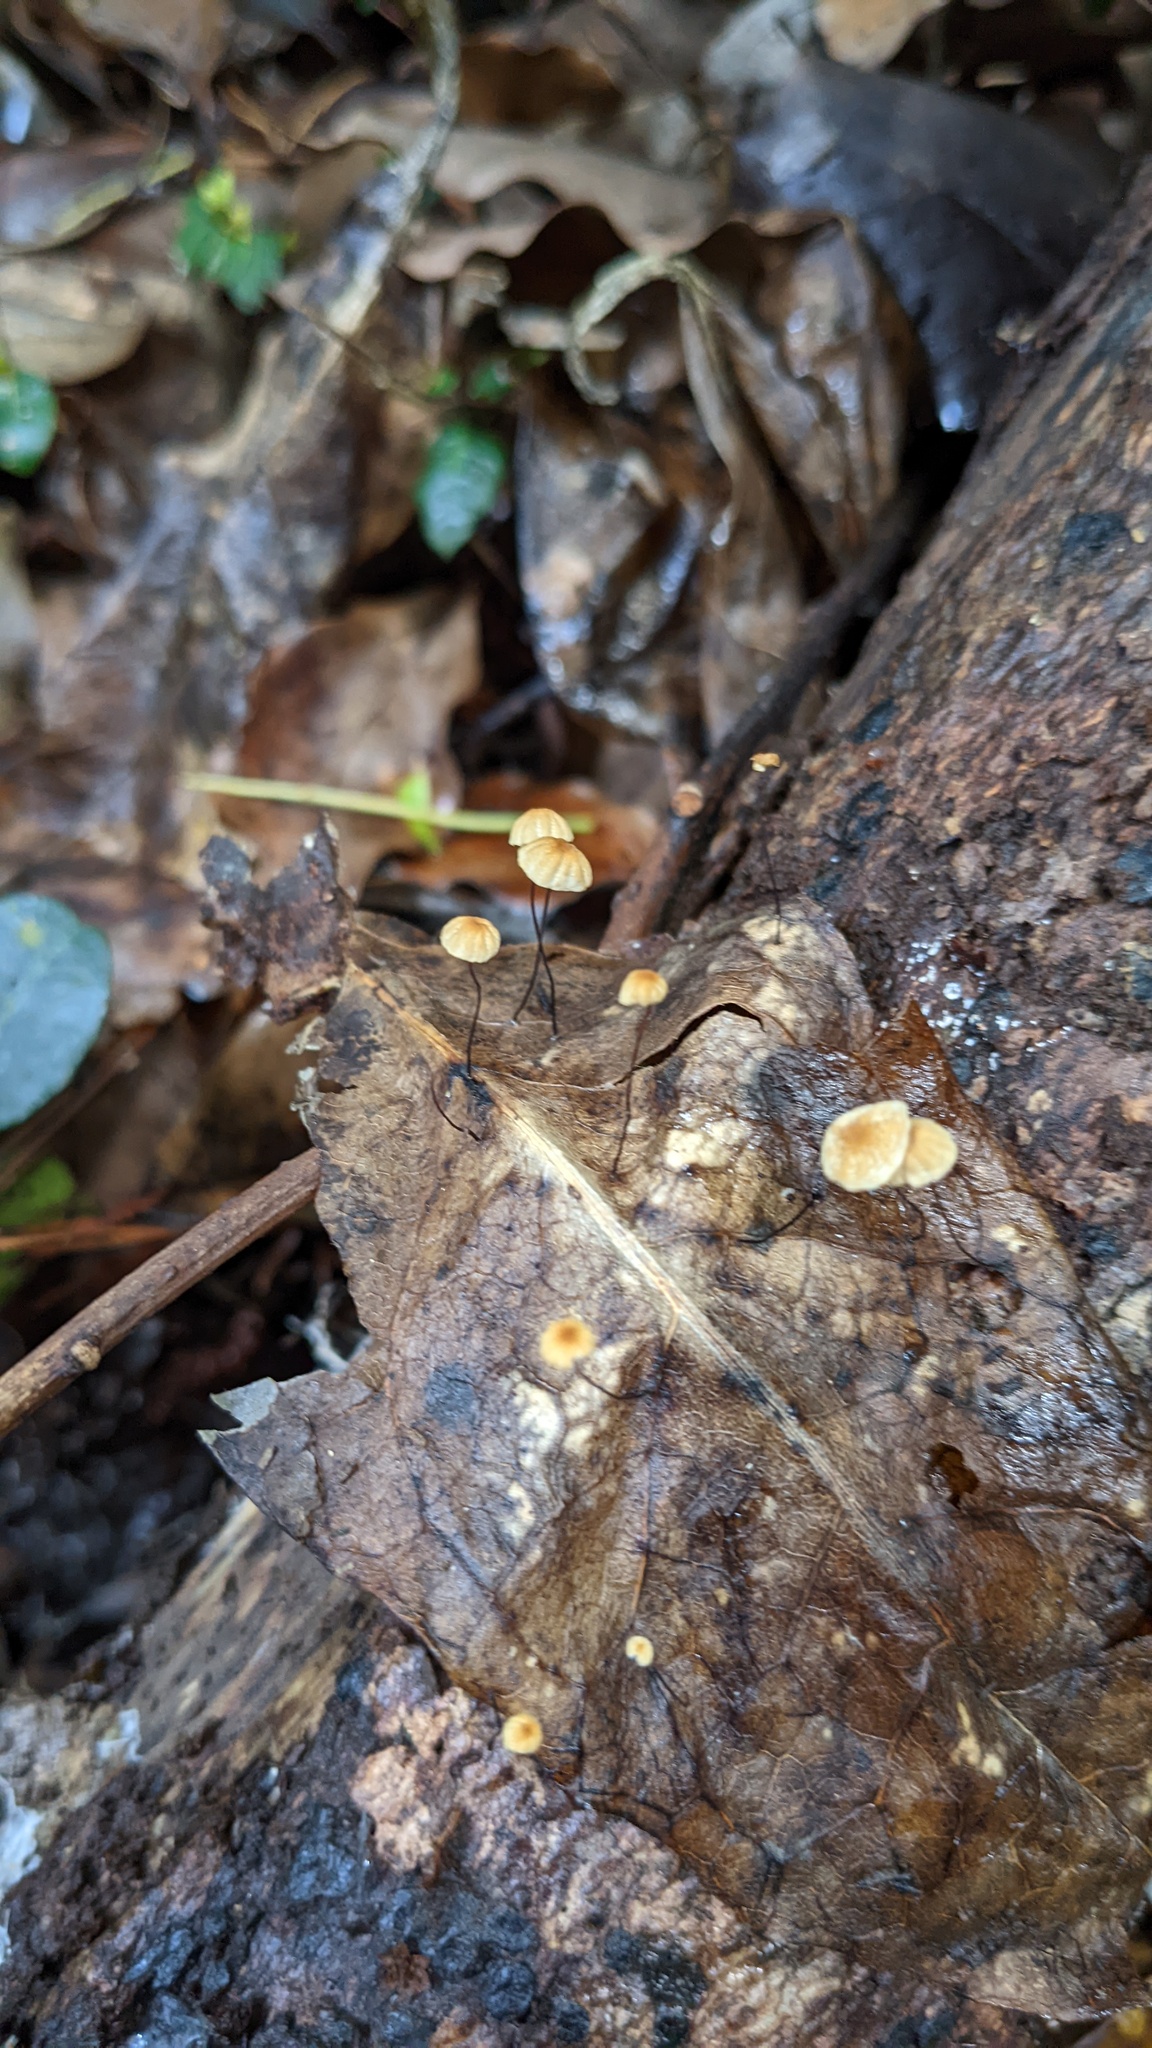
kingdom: Fungi
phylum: Basidiomycota
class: Agaricomycetes
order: Agaricales
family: Physalacriaceae
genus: Cryptomarasmius
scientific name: Cryptomarasmius aucubae
